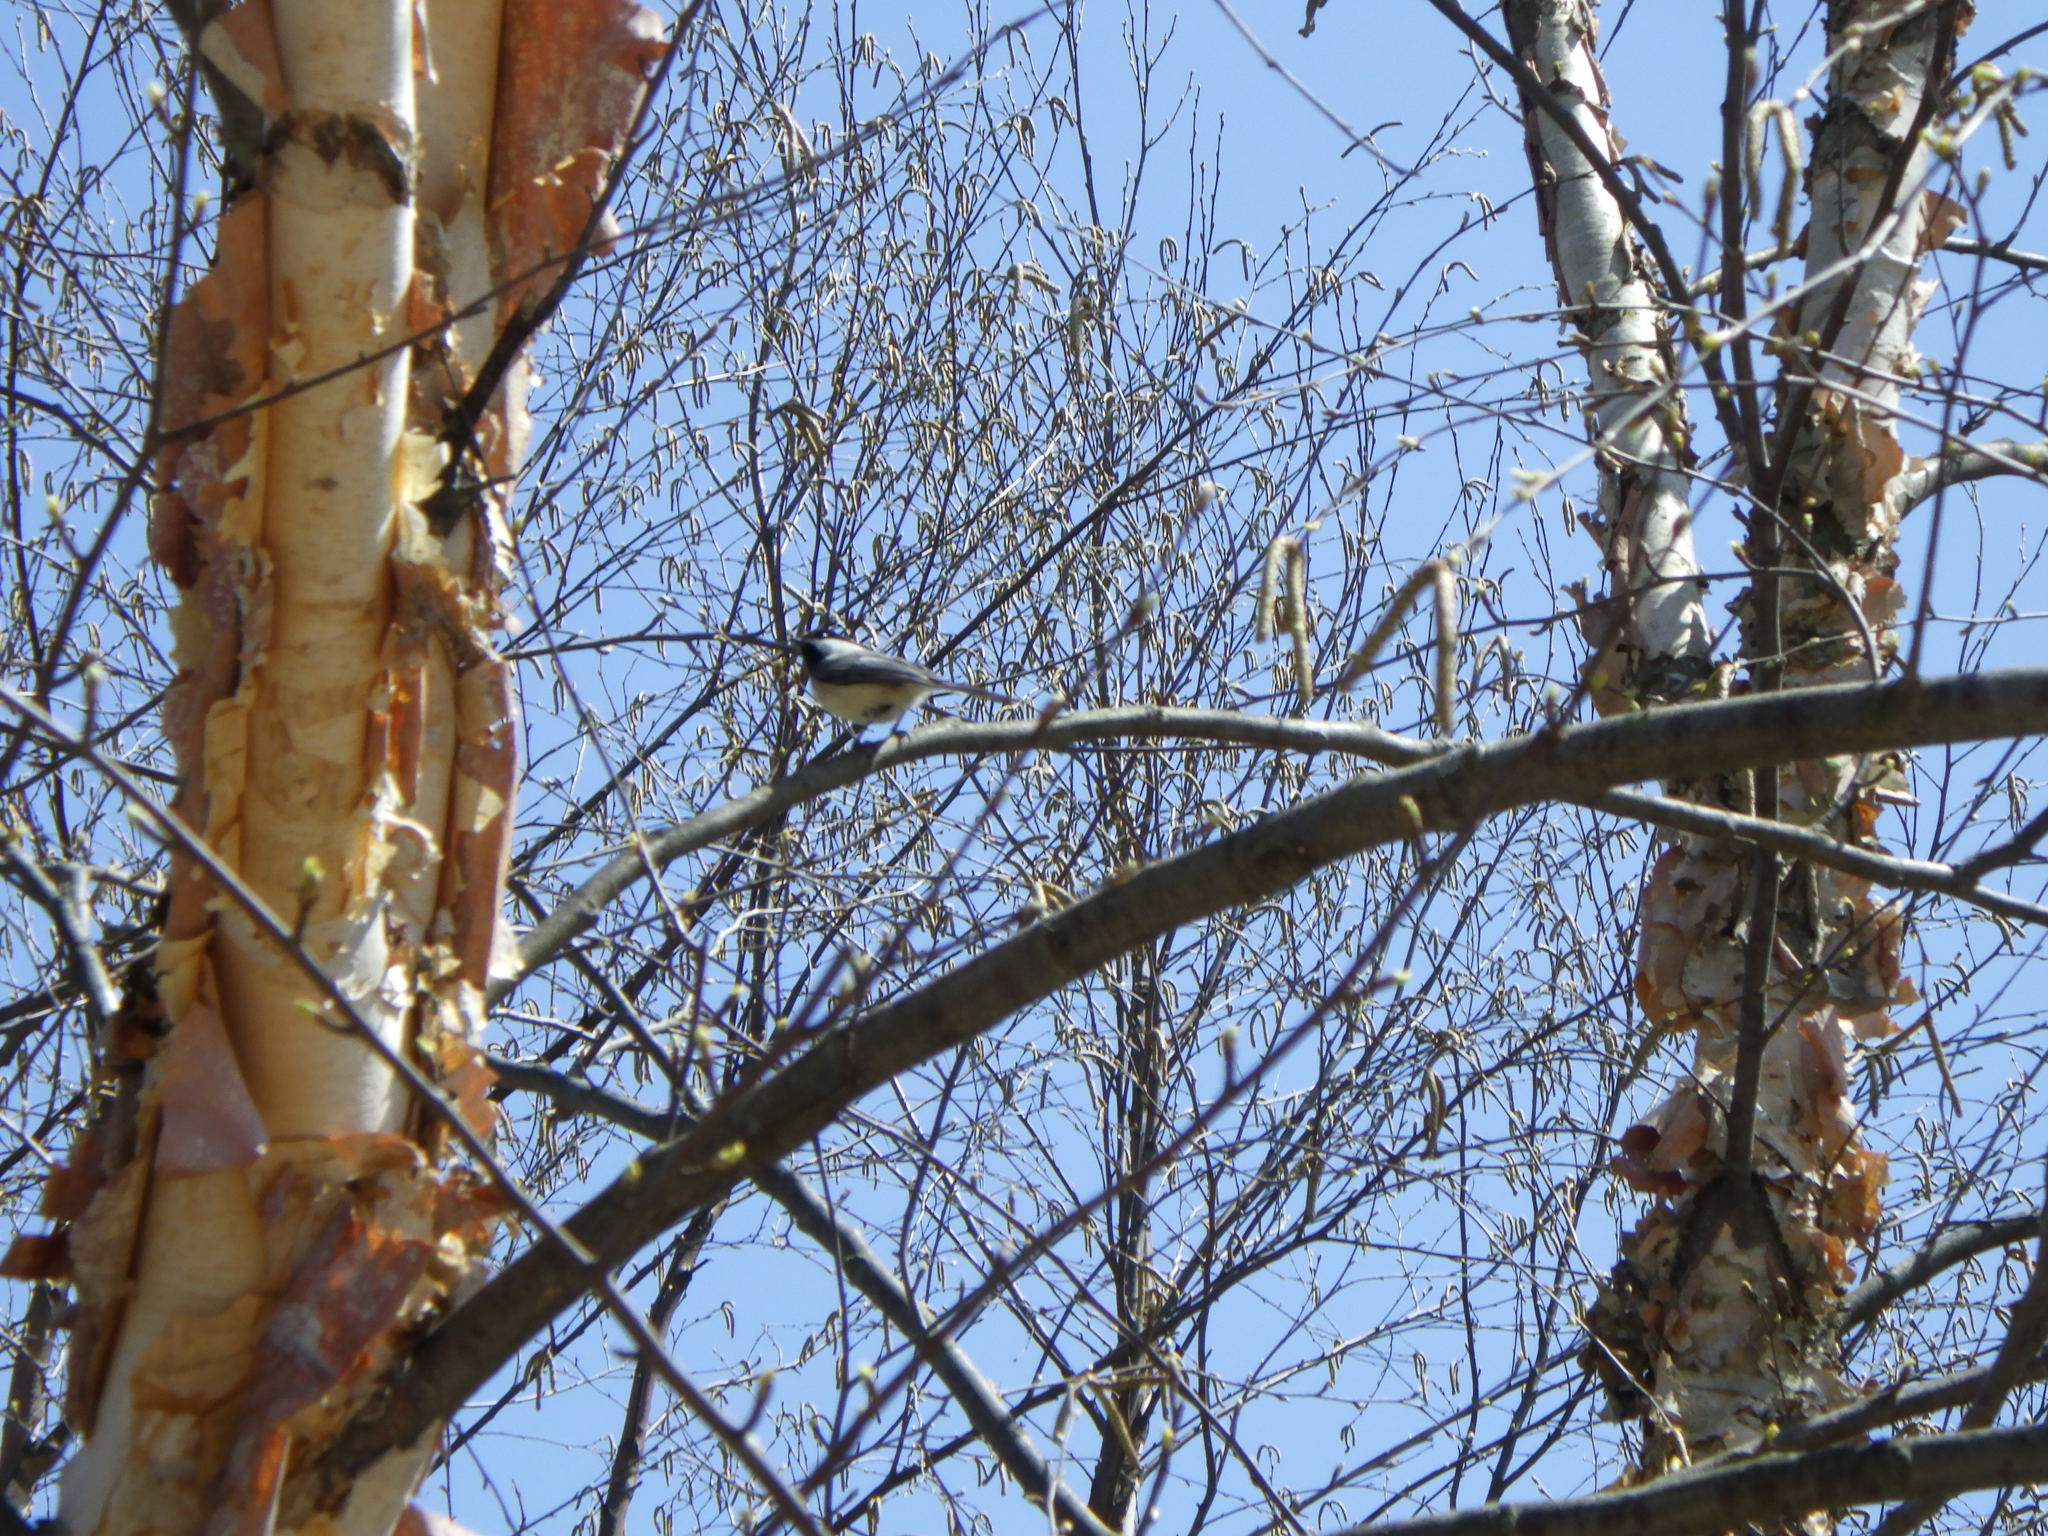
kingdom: Animalia
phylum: Chordata
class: Aves
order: Passeriformes
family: Paridae
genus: Poecile
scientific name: Poecile atricapillus
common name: Black-capped chickadee
